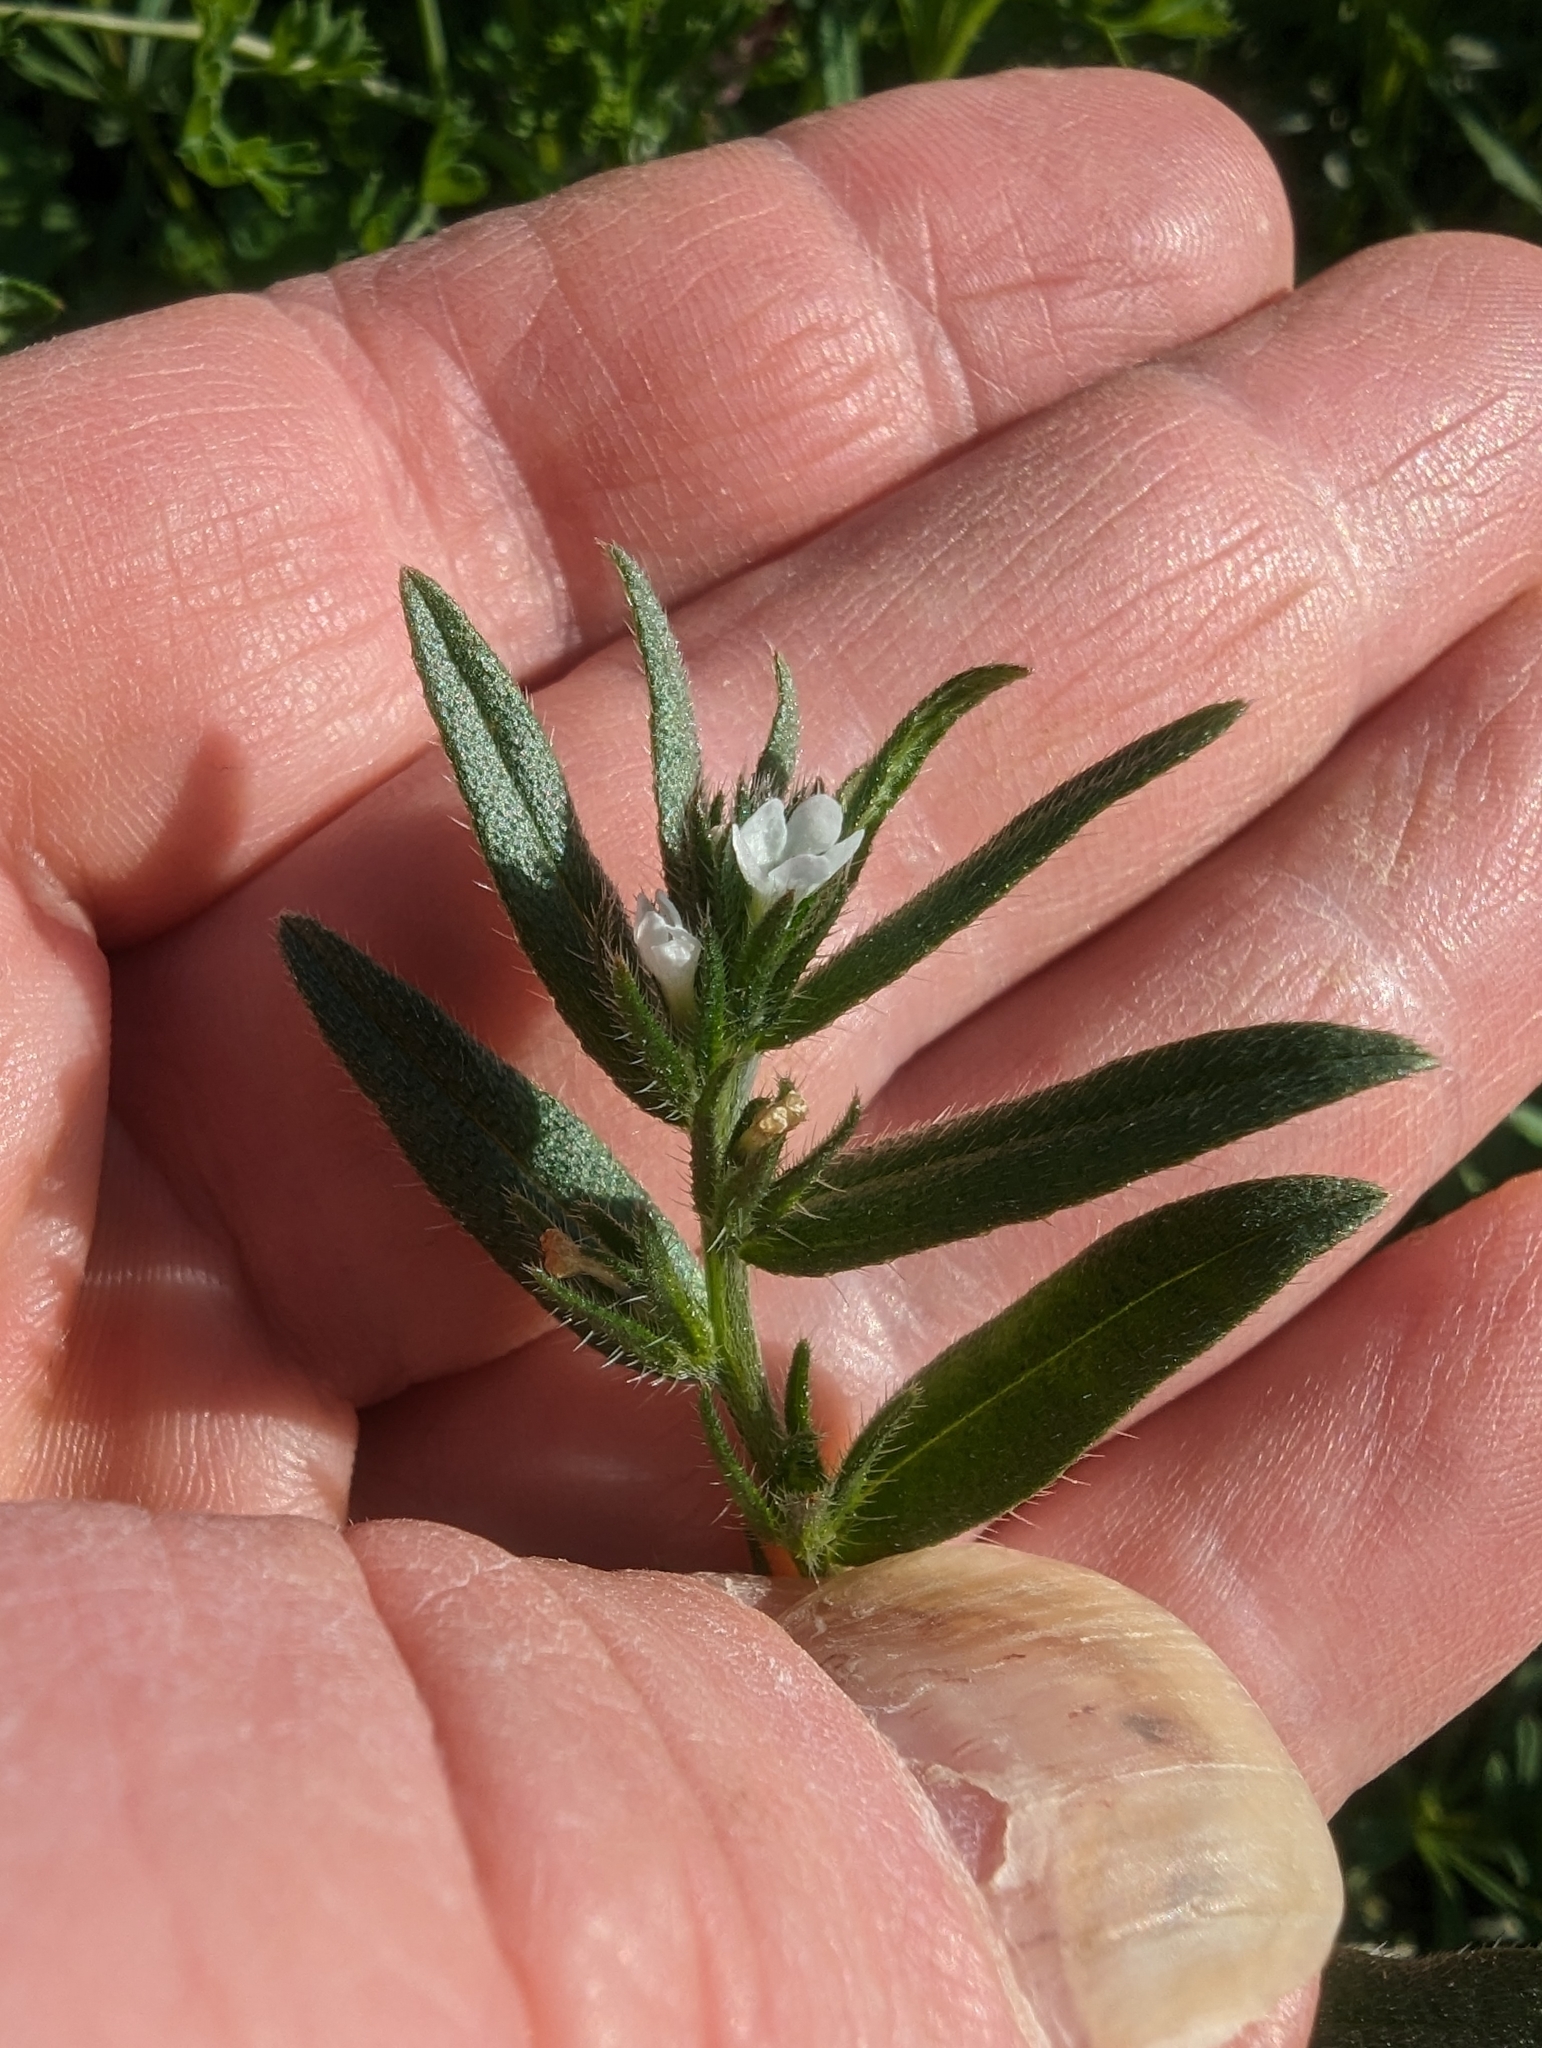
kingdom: Plantae
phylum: Tracheophyta
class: Magnoliopsida
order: Boraginales
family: Boraginaceae
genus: Buglossoides
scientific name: Buglossoides arvensis
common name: Corn gromwell
